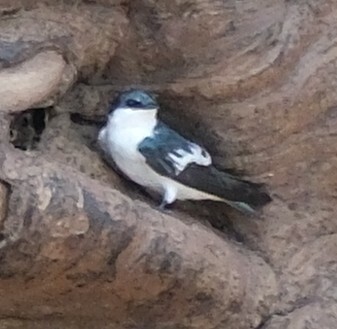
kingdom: Animalia
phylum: Chordata
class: Aves
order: Passeriformes
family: Hirundinidae
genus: Tachycineta
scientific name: Tachycineta albiventer
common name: White-winged swallow
